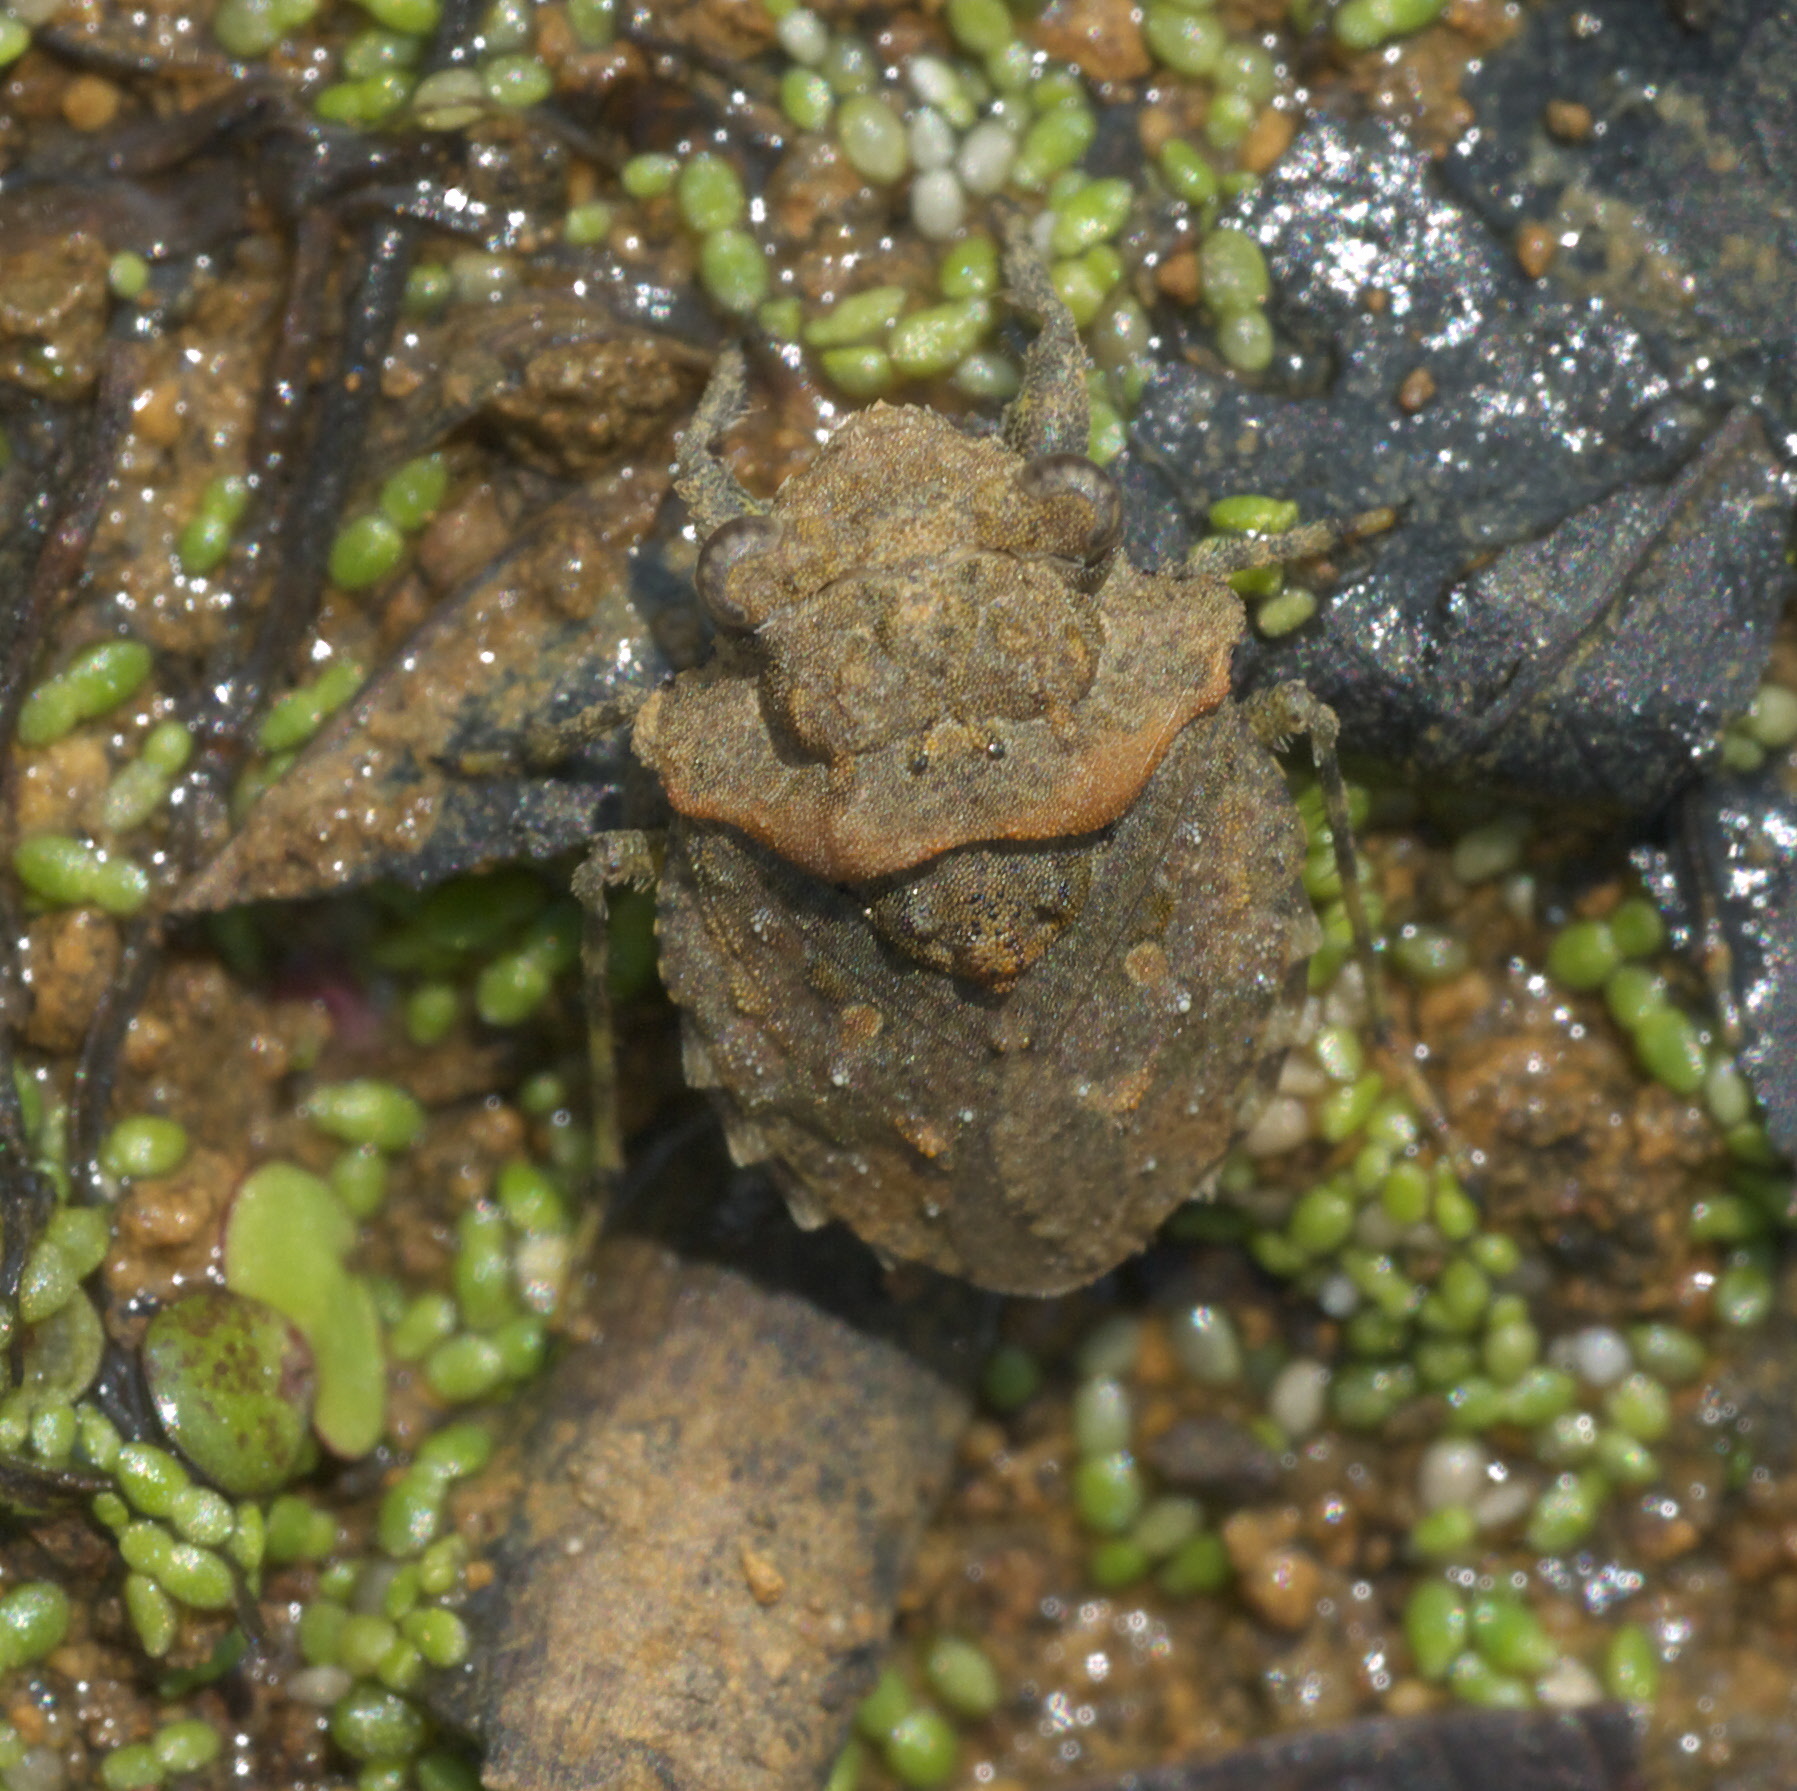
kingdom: Animalia
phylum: Arthropoda
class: Insecta
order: Hemiptera
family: Gelastocoridae
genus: Gelastocoris
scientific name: Gelastocoris oculatus
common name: Toad bug
